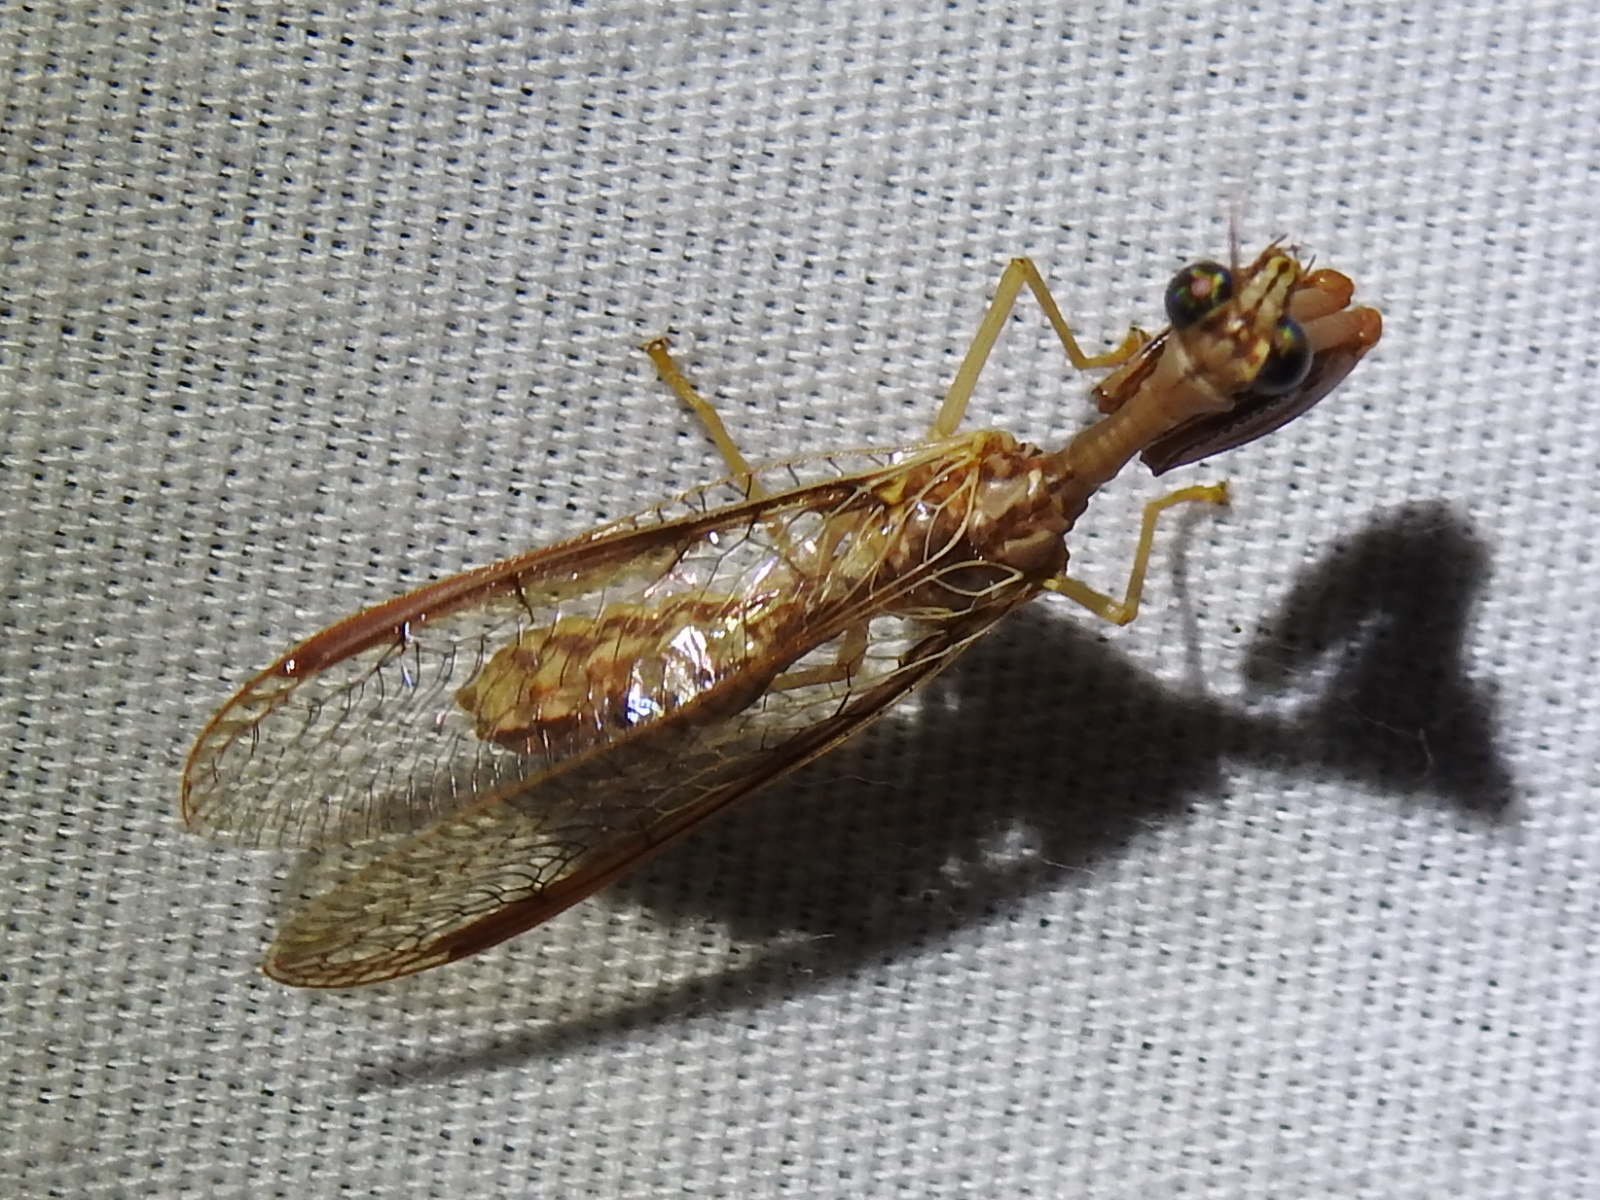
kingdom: Animalia
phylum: Arthropoda
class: Insecta
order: Neuroptera
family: Mantispidae
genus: Dicromantispa
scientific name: Dicromantispa sayi
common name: Say's mantidfly
